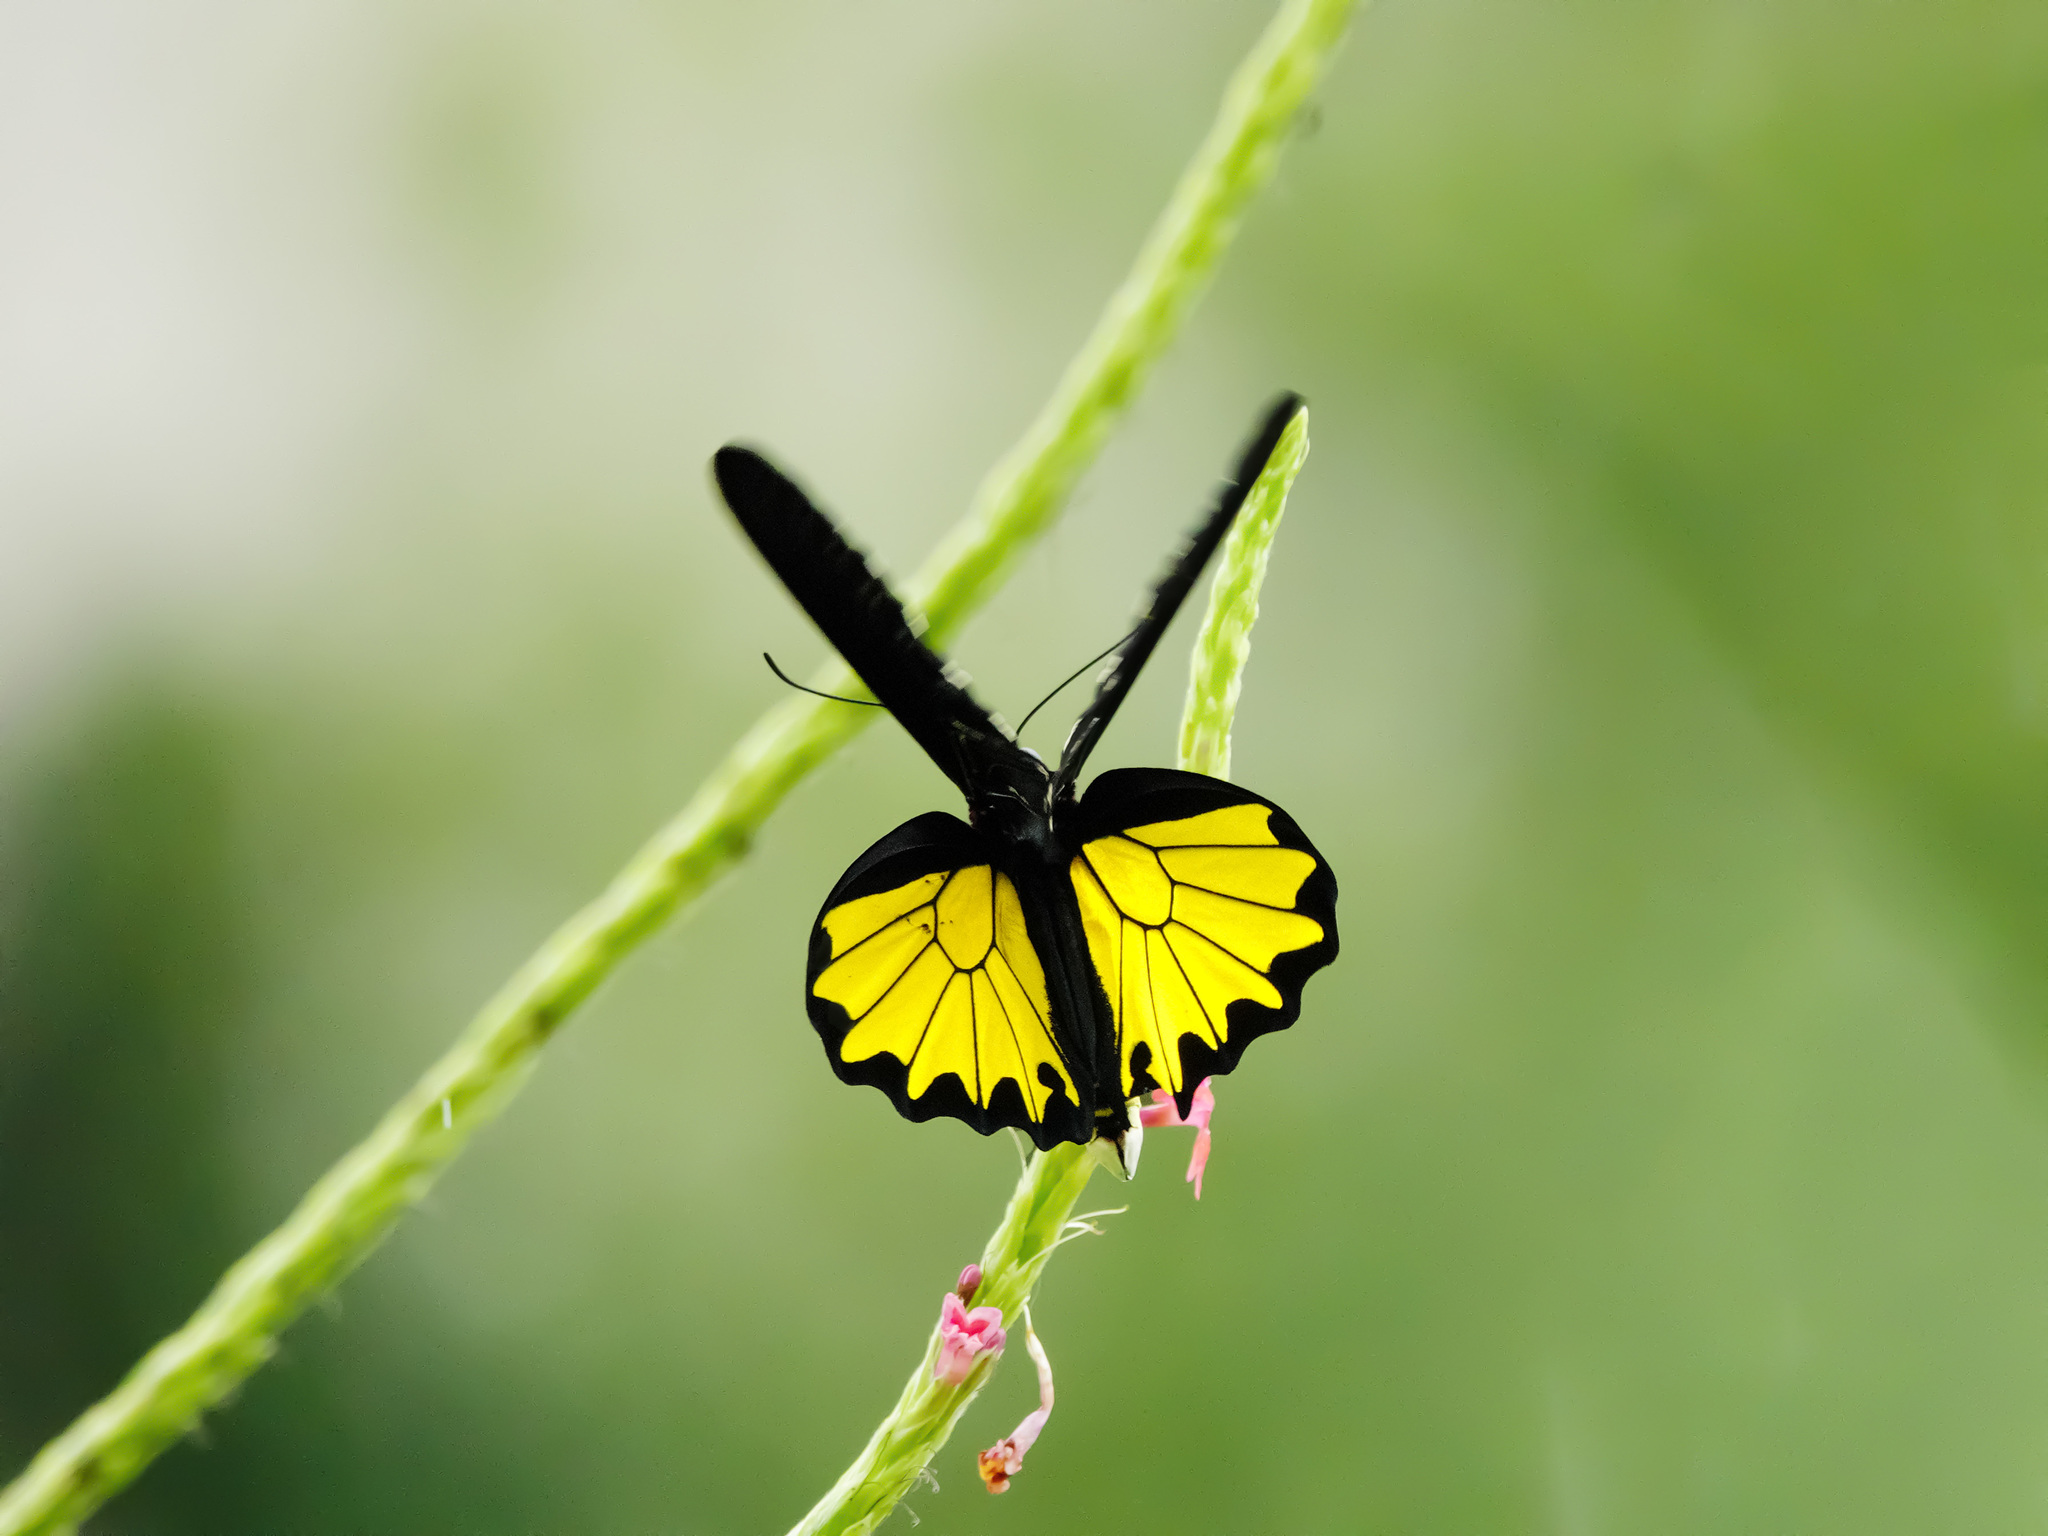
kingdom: Animalia
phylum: Arthropoda
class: Insecta
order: Lepidoptera
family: Papilionidae
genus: Troides
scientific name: Troides helena
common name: Common birdwing
